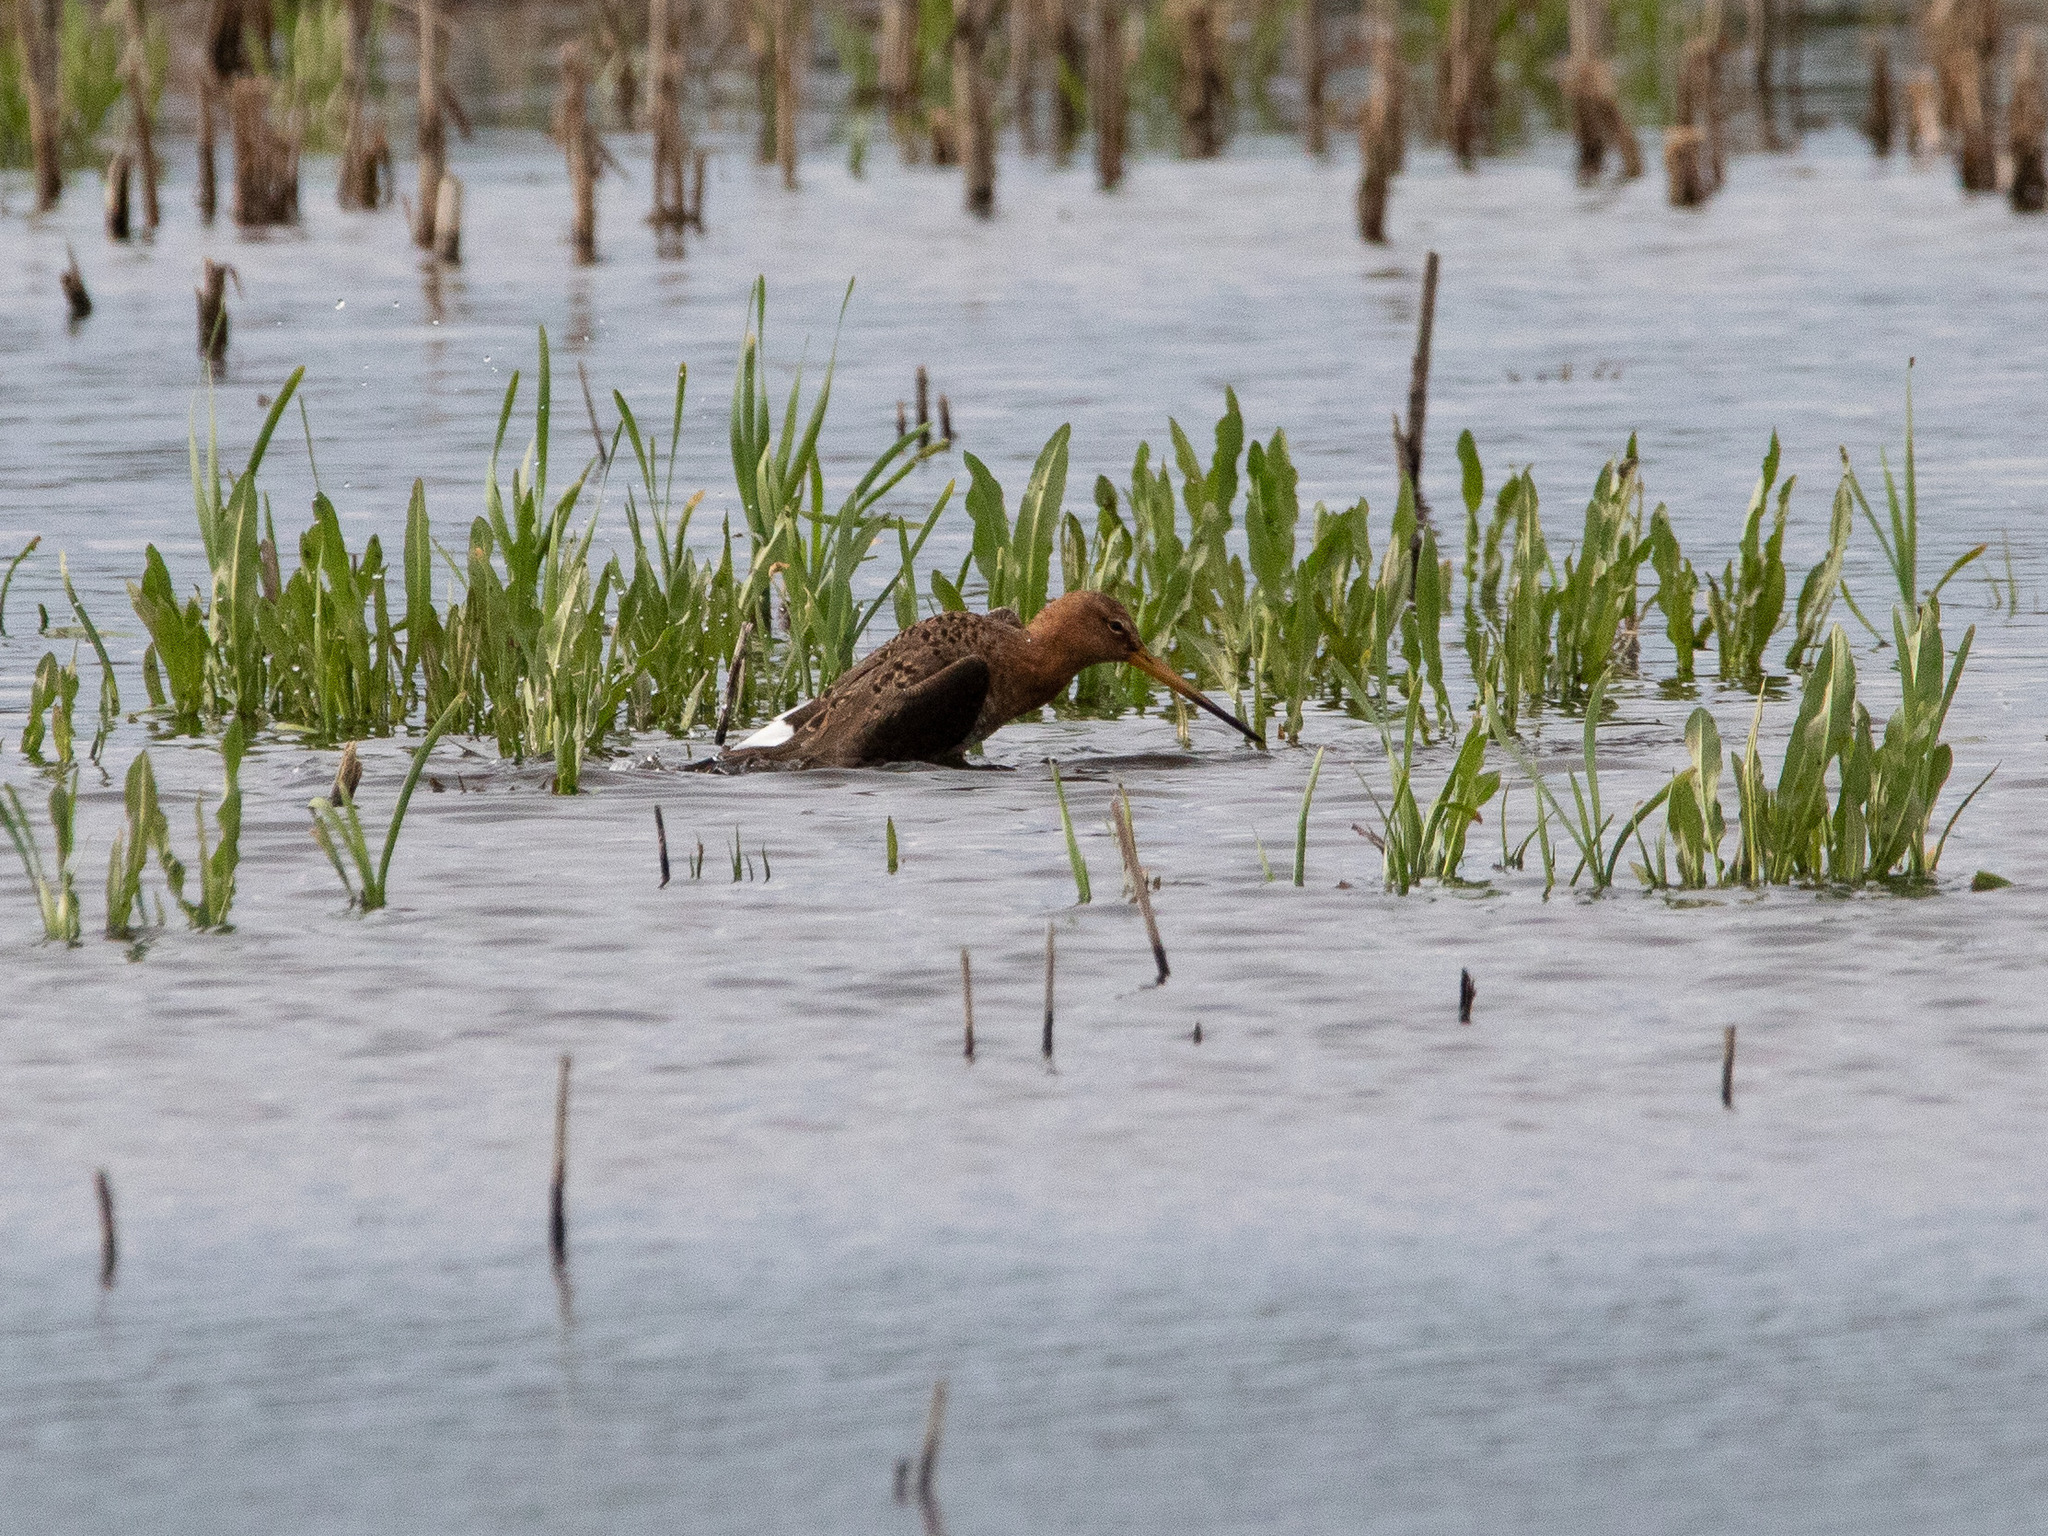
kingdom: Animalia
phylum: Chordata
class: Aves
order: Charadriiformes
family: Scolopacidae
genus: Limosa
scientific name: Limosa limosa
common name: Black-tailed godwit
